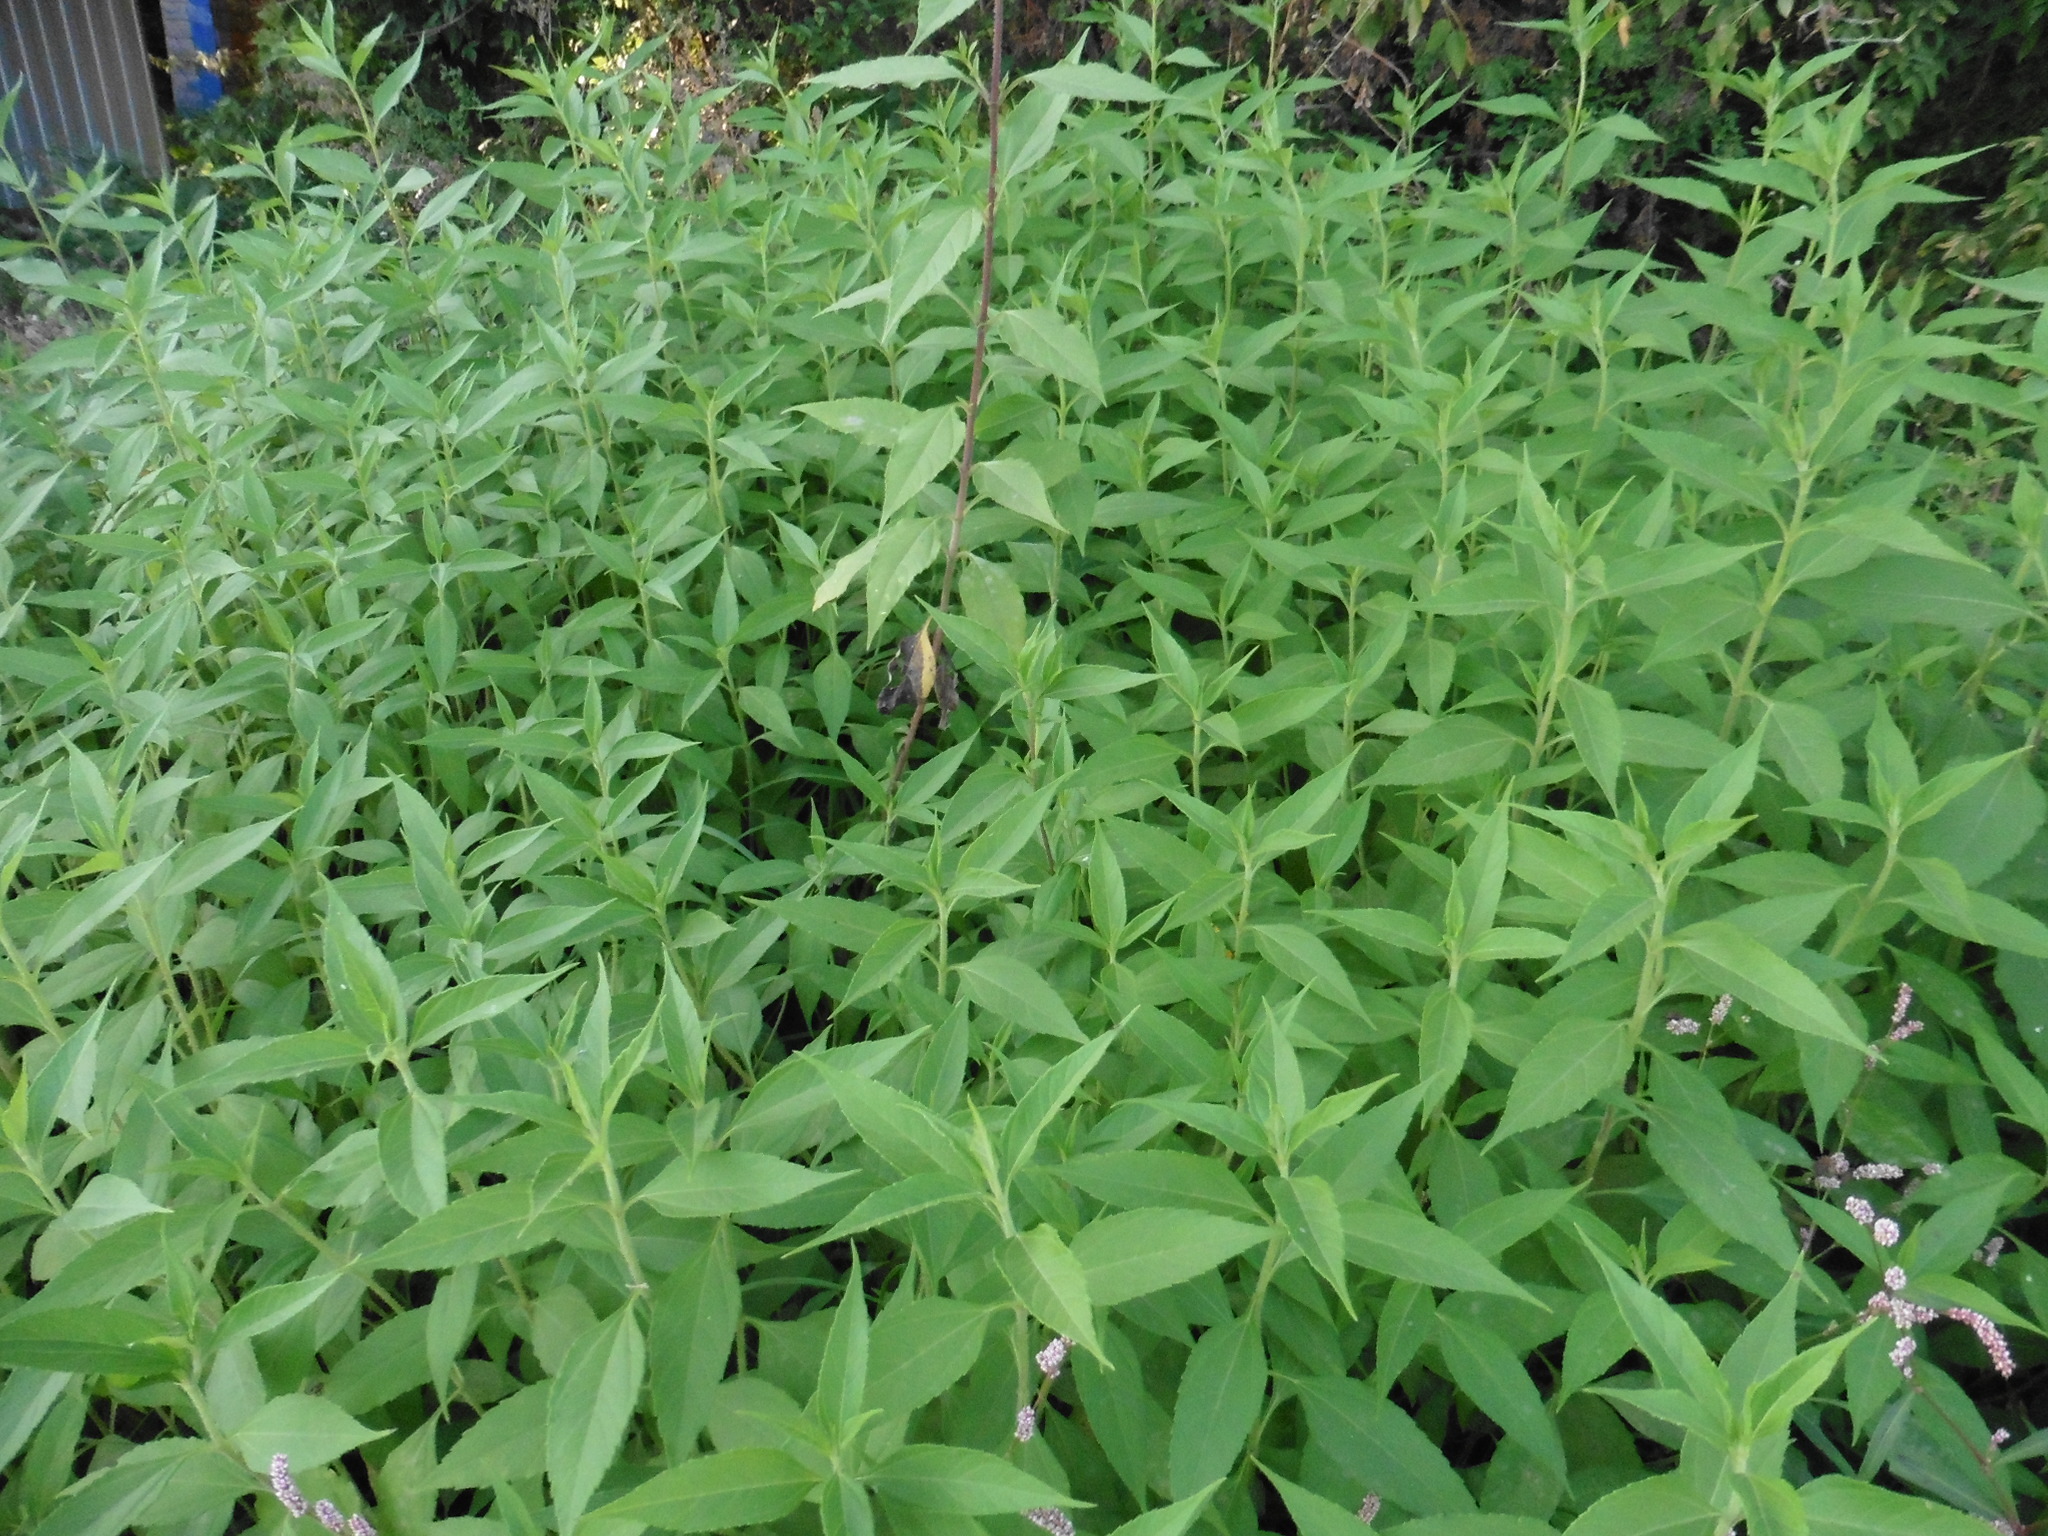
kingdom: Plantae
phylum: Tracheophyta
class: Magnoliopsida
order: Asterales
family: Asteraceae
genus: Helianthus
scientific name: Helianthus tuberosus
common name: Jerusalem artichoke
